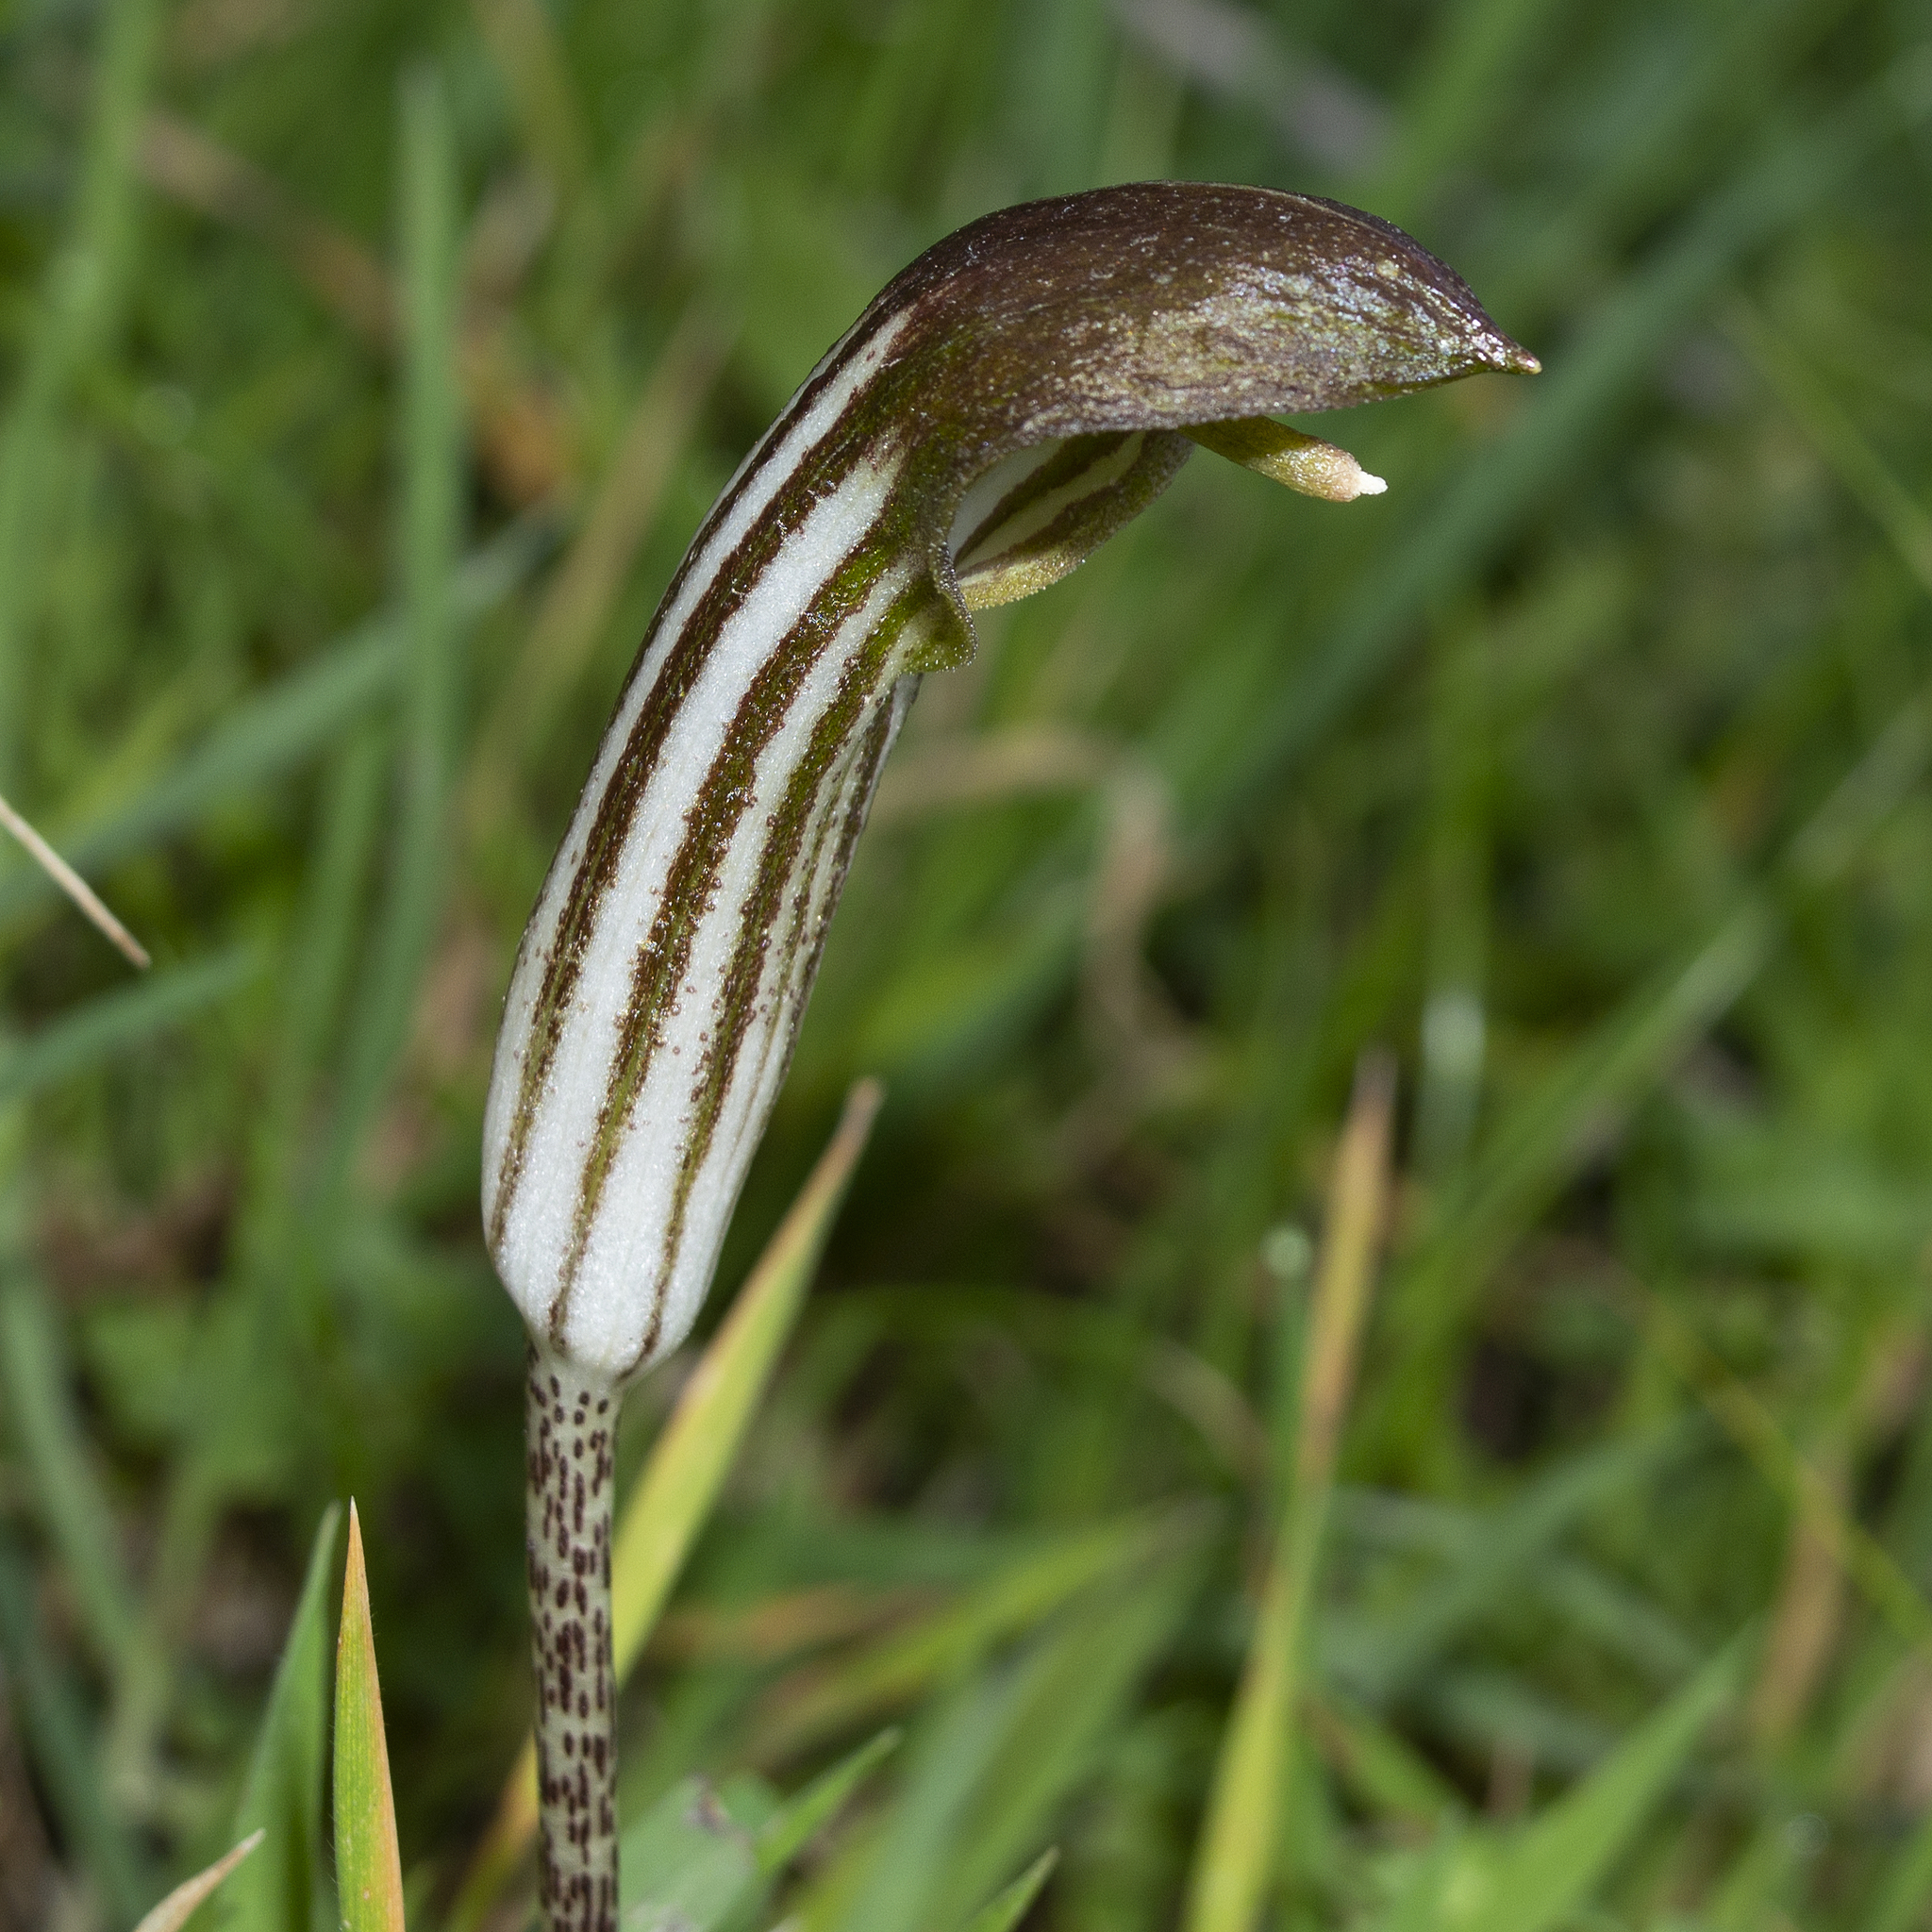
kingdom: Plantae
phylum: Tracheophyta
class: Liliopsida
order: Alismatales
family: Araceae
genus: Arisarum
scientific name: Arisarum vulgare
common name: Common arisarum
